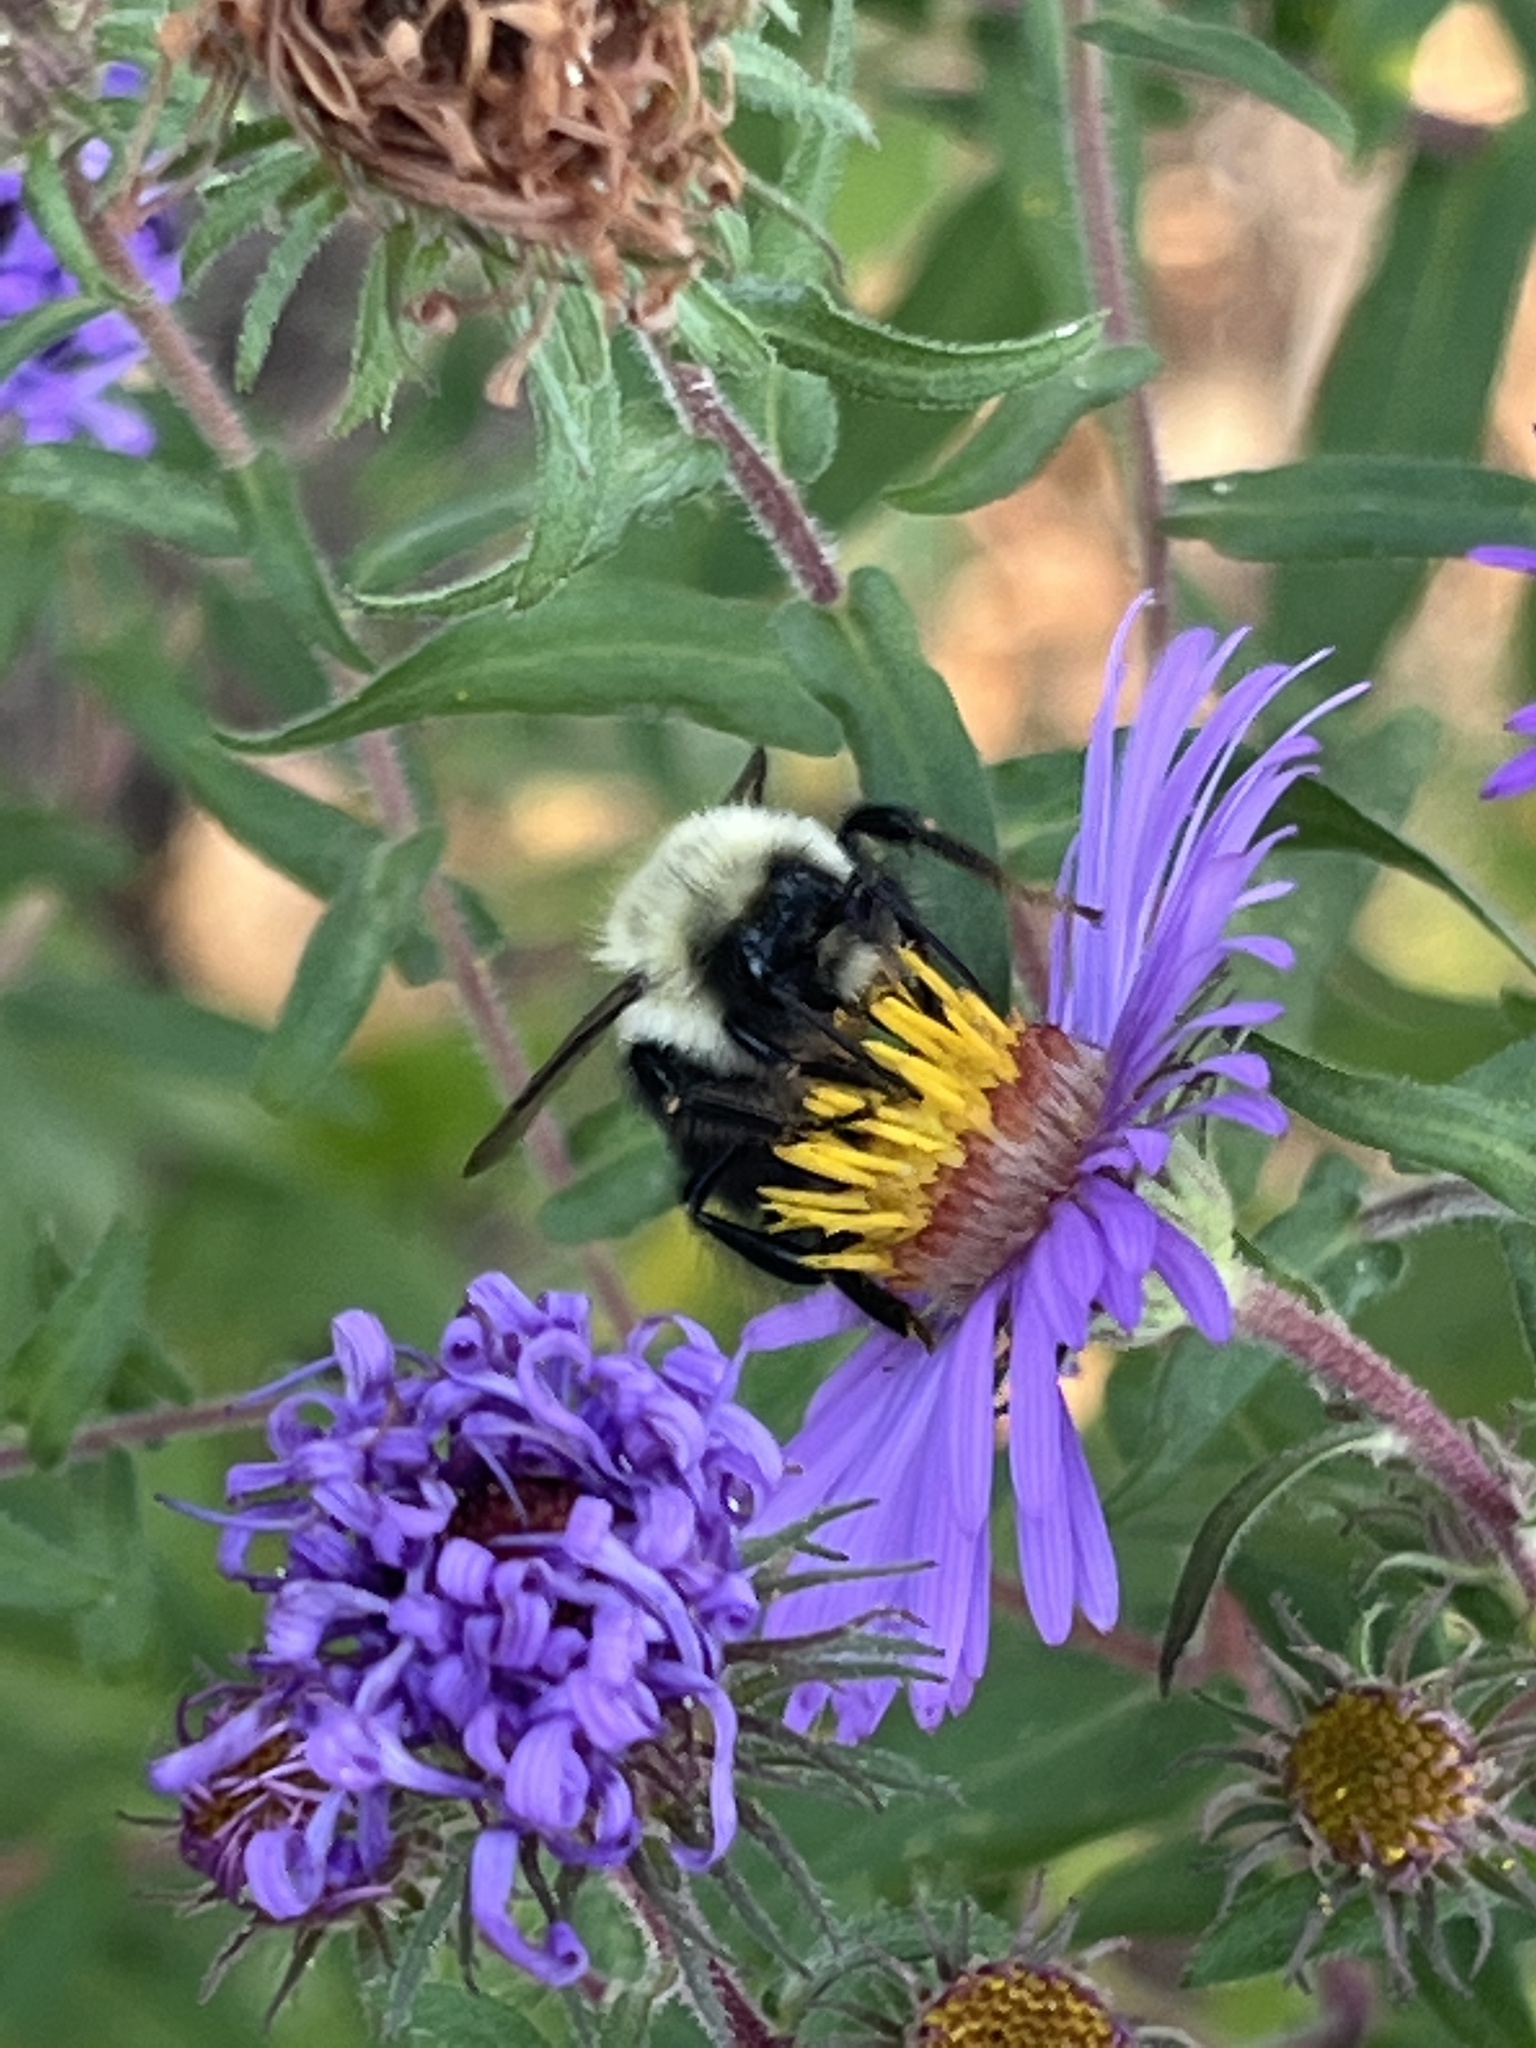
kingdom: Animalia
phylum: Arthropoda
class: Insecta
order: Hymenoptera
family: Apidae
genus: Bombus
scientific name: Bombus impatiens
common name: Common eastern bumble bee
